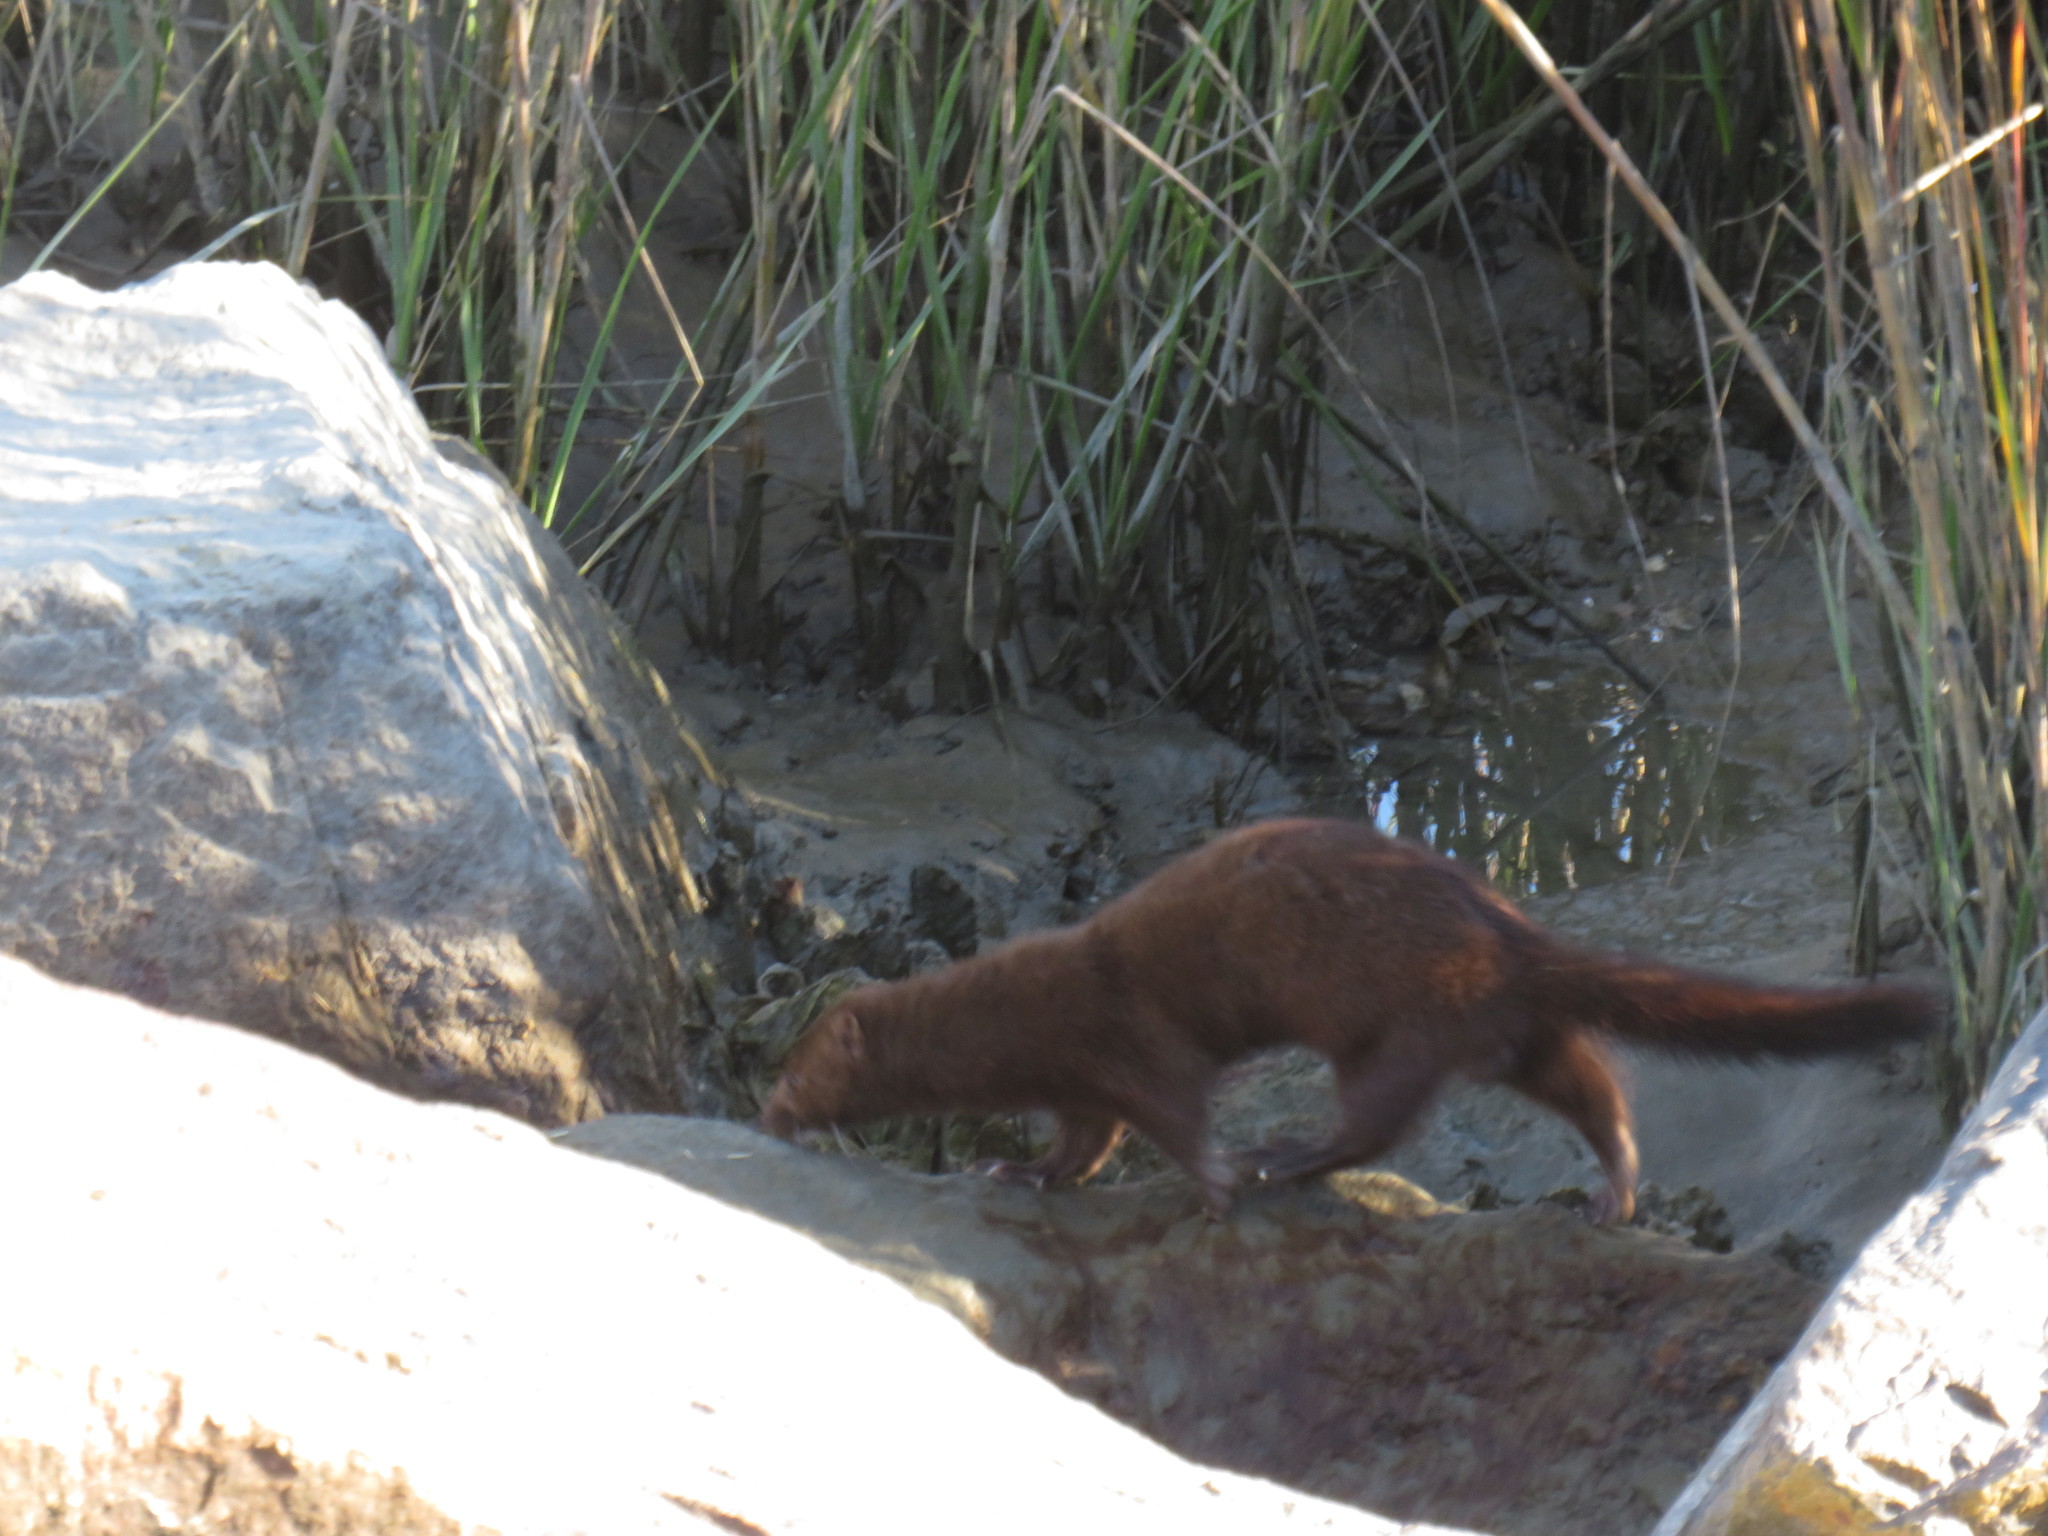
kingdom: Animalia
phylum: Chordata
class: Mammalia
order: Carnivora
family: Mustelidae
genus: Mustela
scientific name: Mustela
